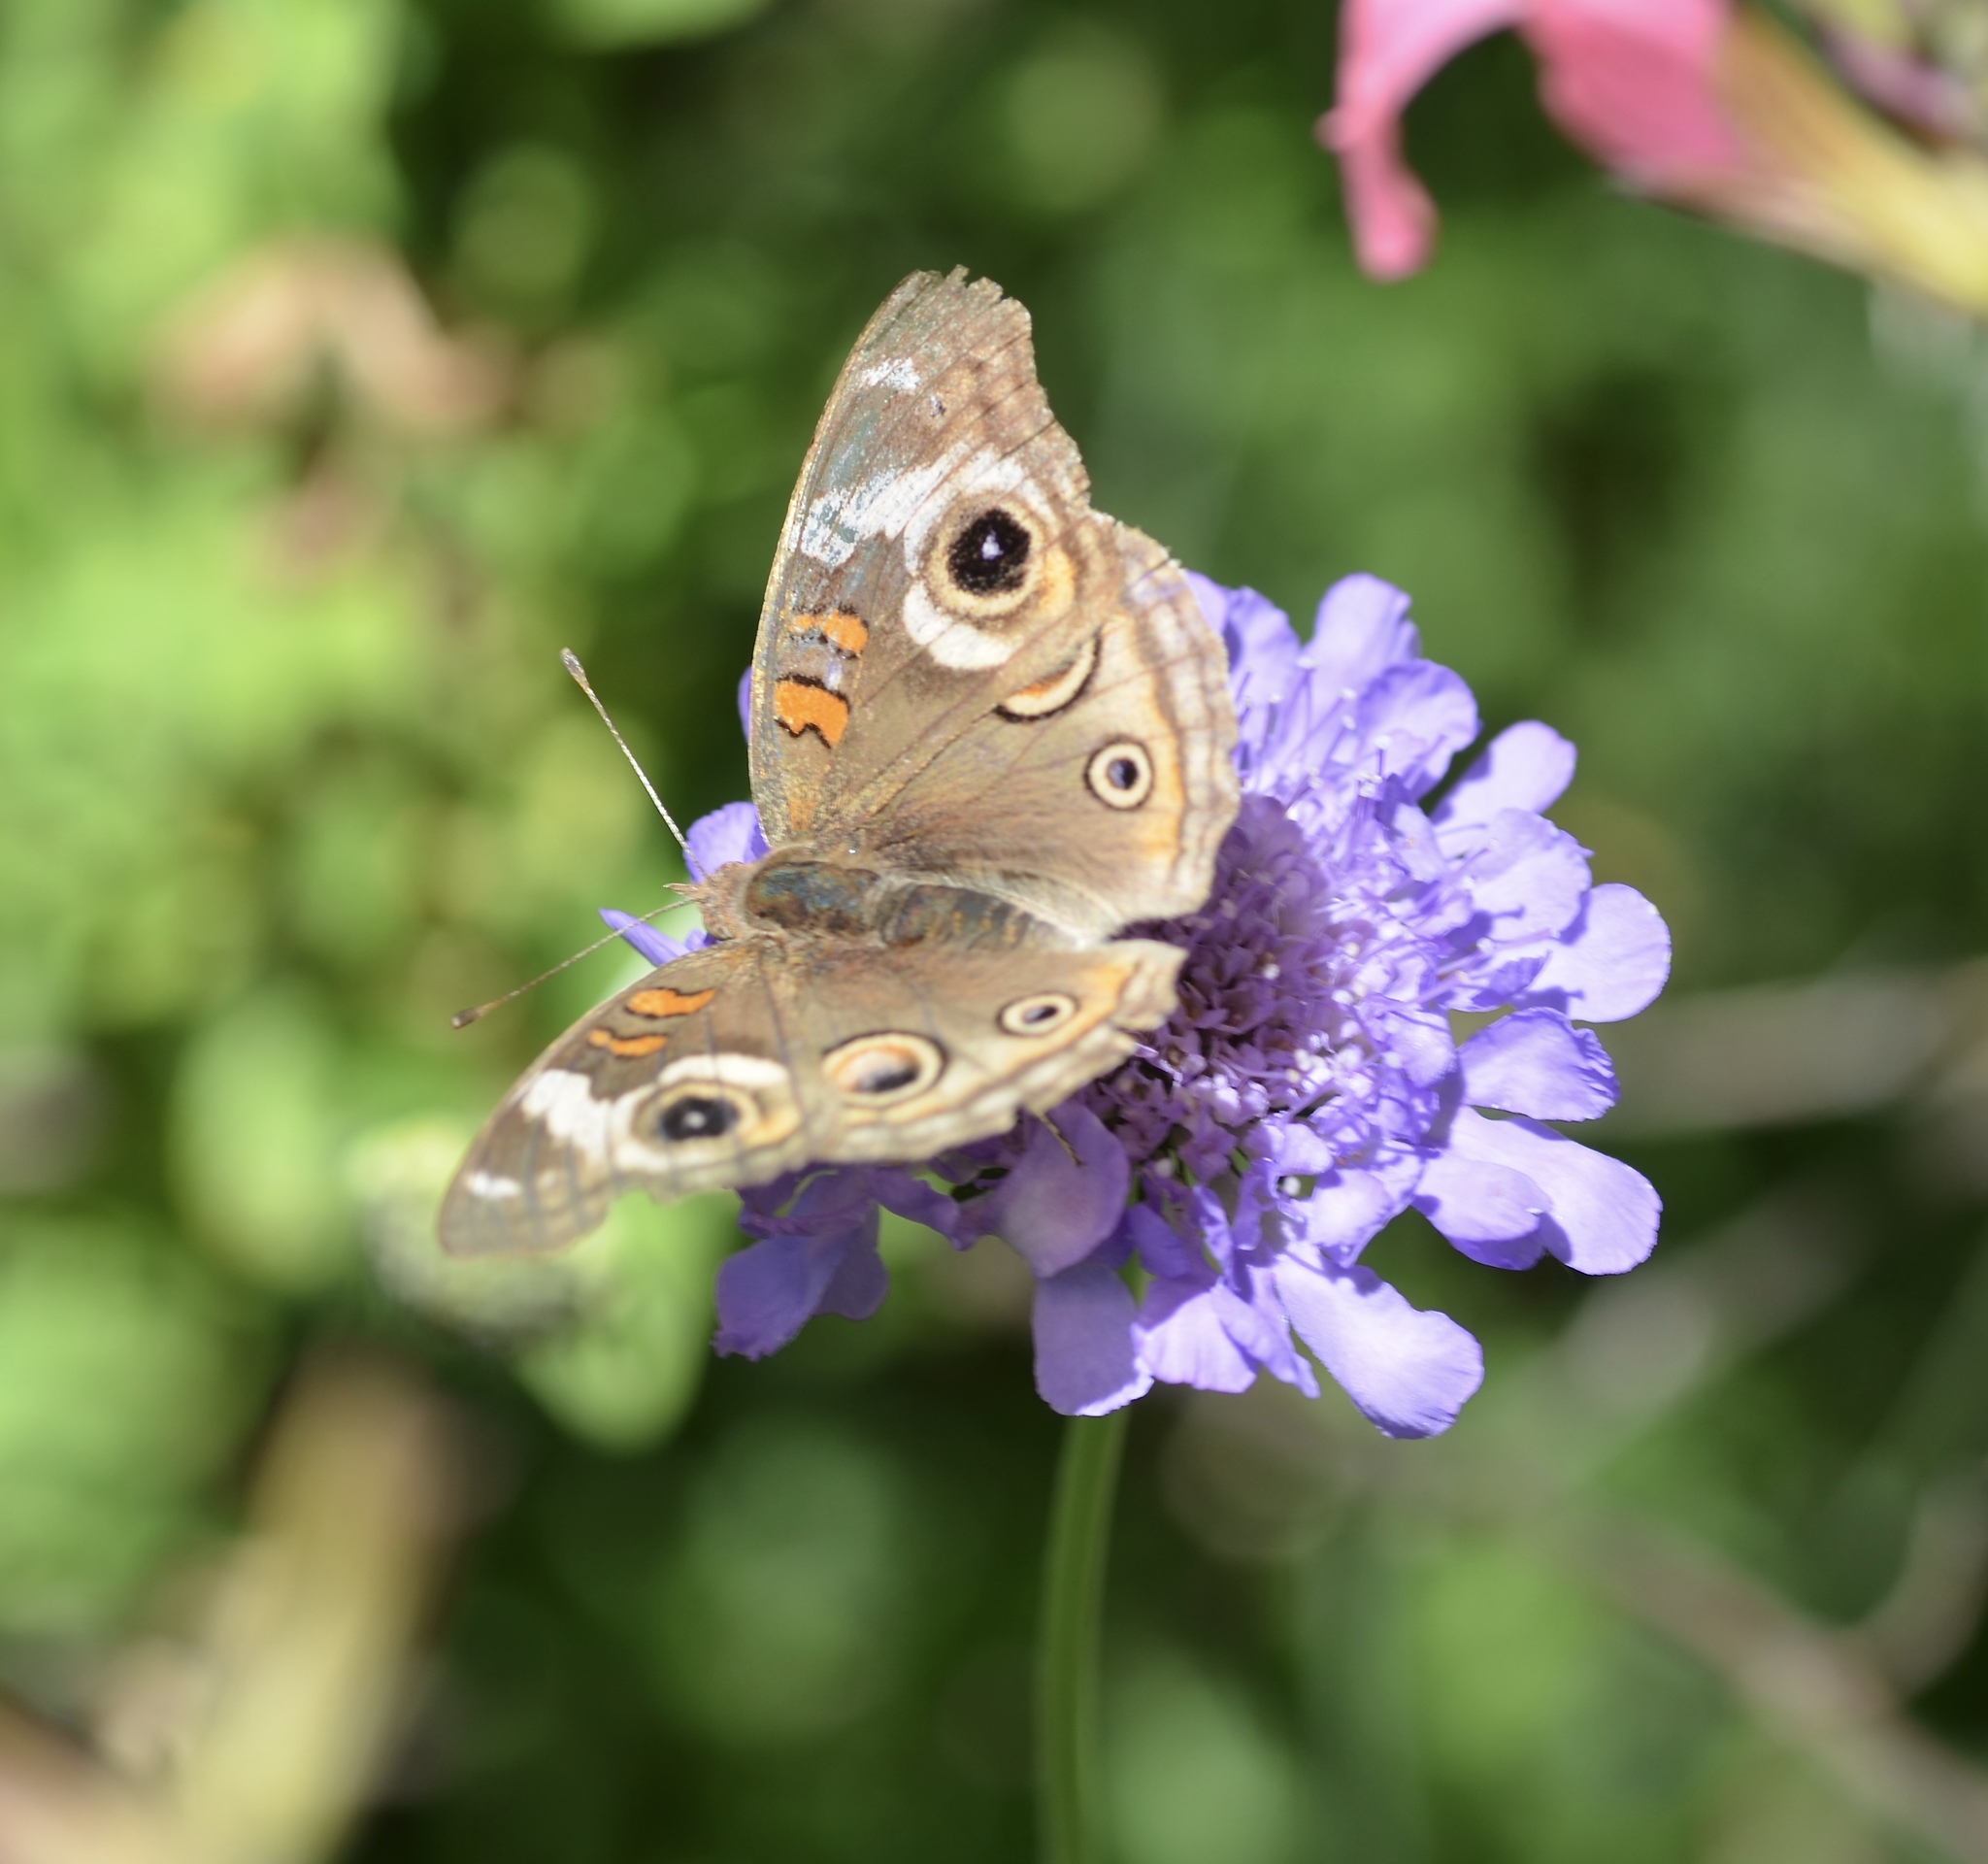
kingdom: Animalia
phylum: Arthropoda
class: Insecta
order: Lepidoptera
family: Nymphalidae
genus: Junonia
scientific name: Junonia grisea
